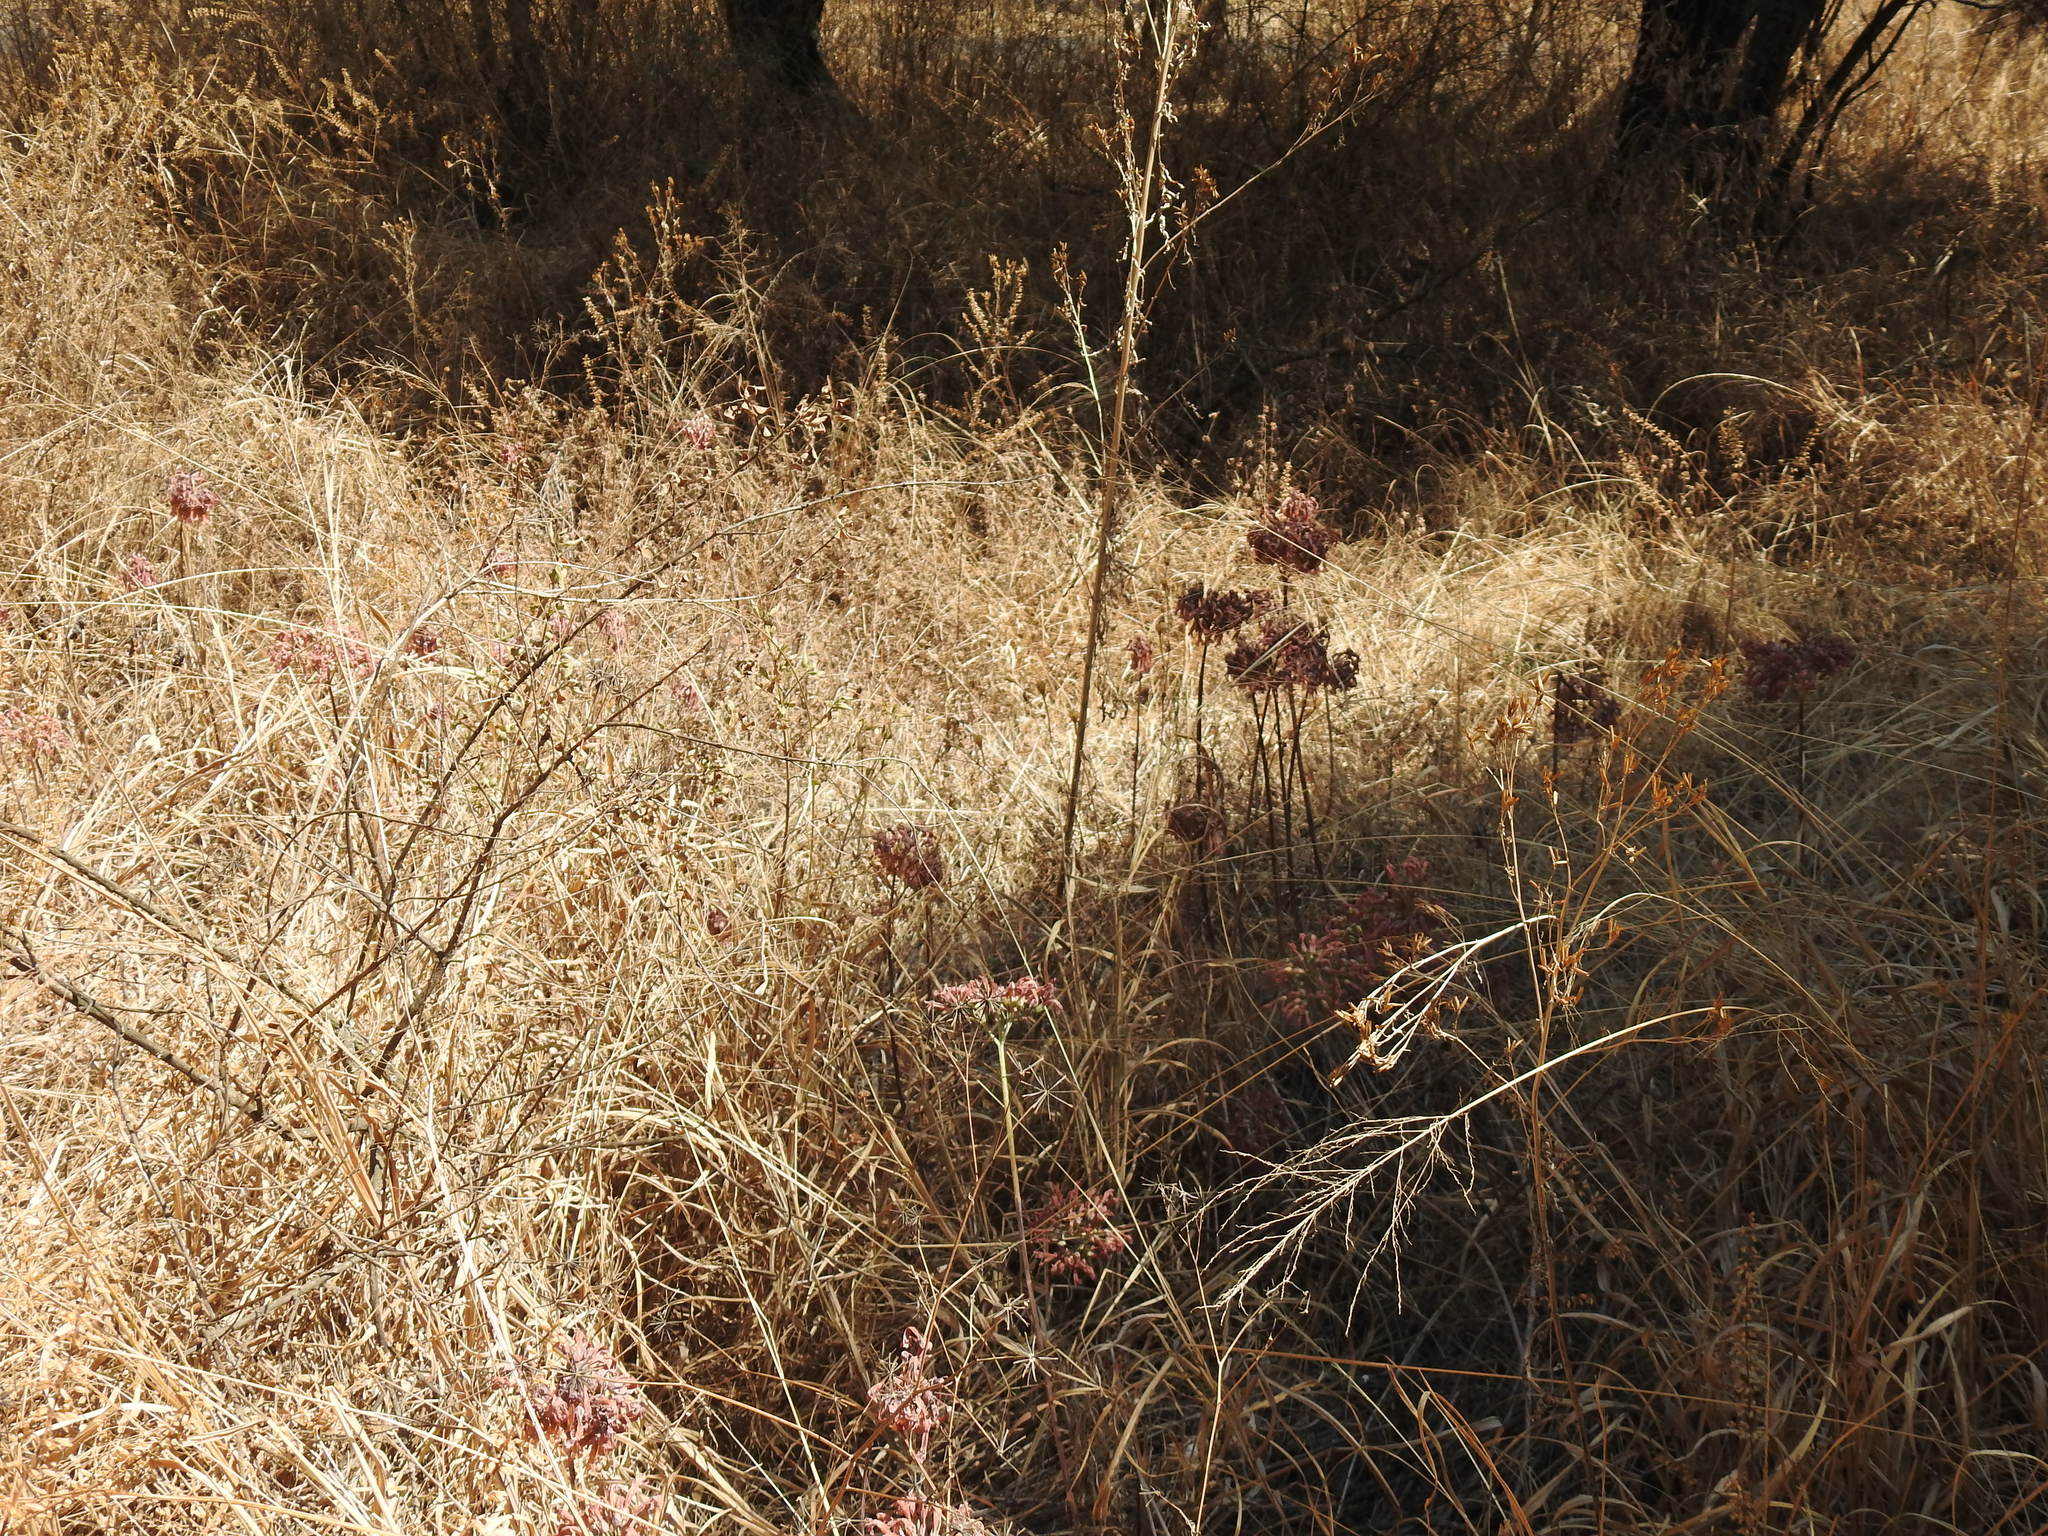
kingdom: Plantae
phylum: Tracheophyta
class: Magnoliopsida
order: Saxifragales
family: Crassulaceae
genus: Kalanchoe
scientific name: Kalanchoe delagoensis
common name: Chandelier plant
